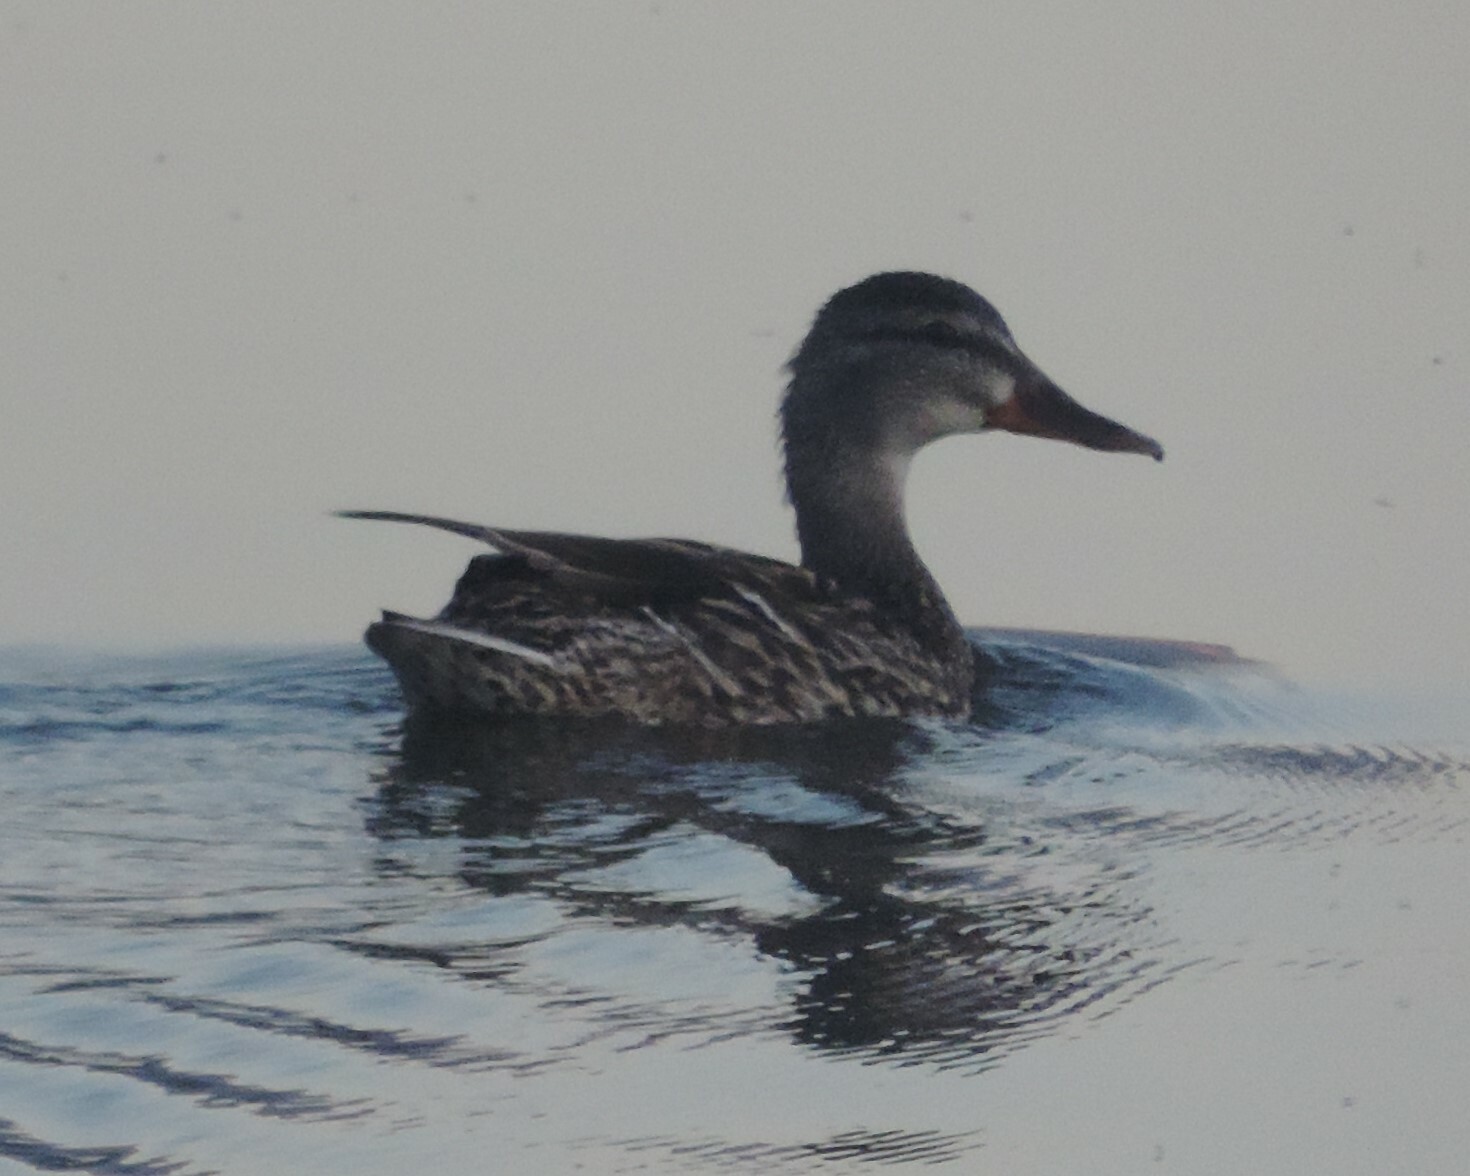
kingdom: Animalia
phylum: Chordata
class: Aves
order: Anseriformes
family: Anatidae
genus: Anas
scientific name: Anas platyrhynchos
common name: Mallard
